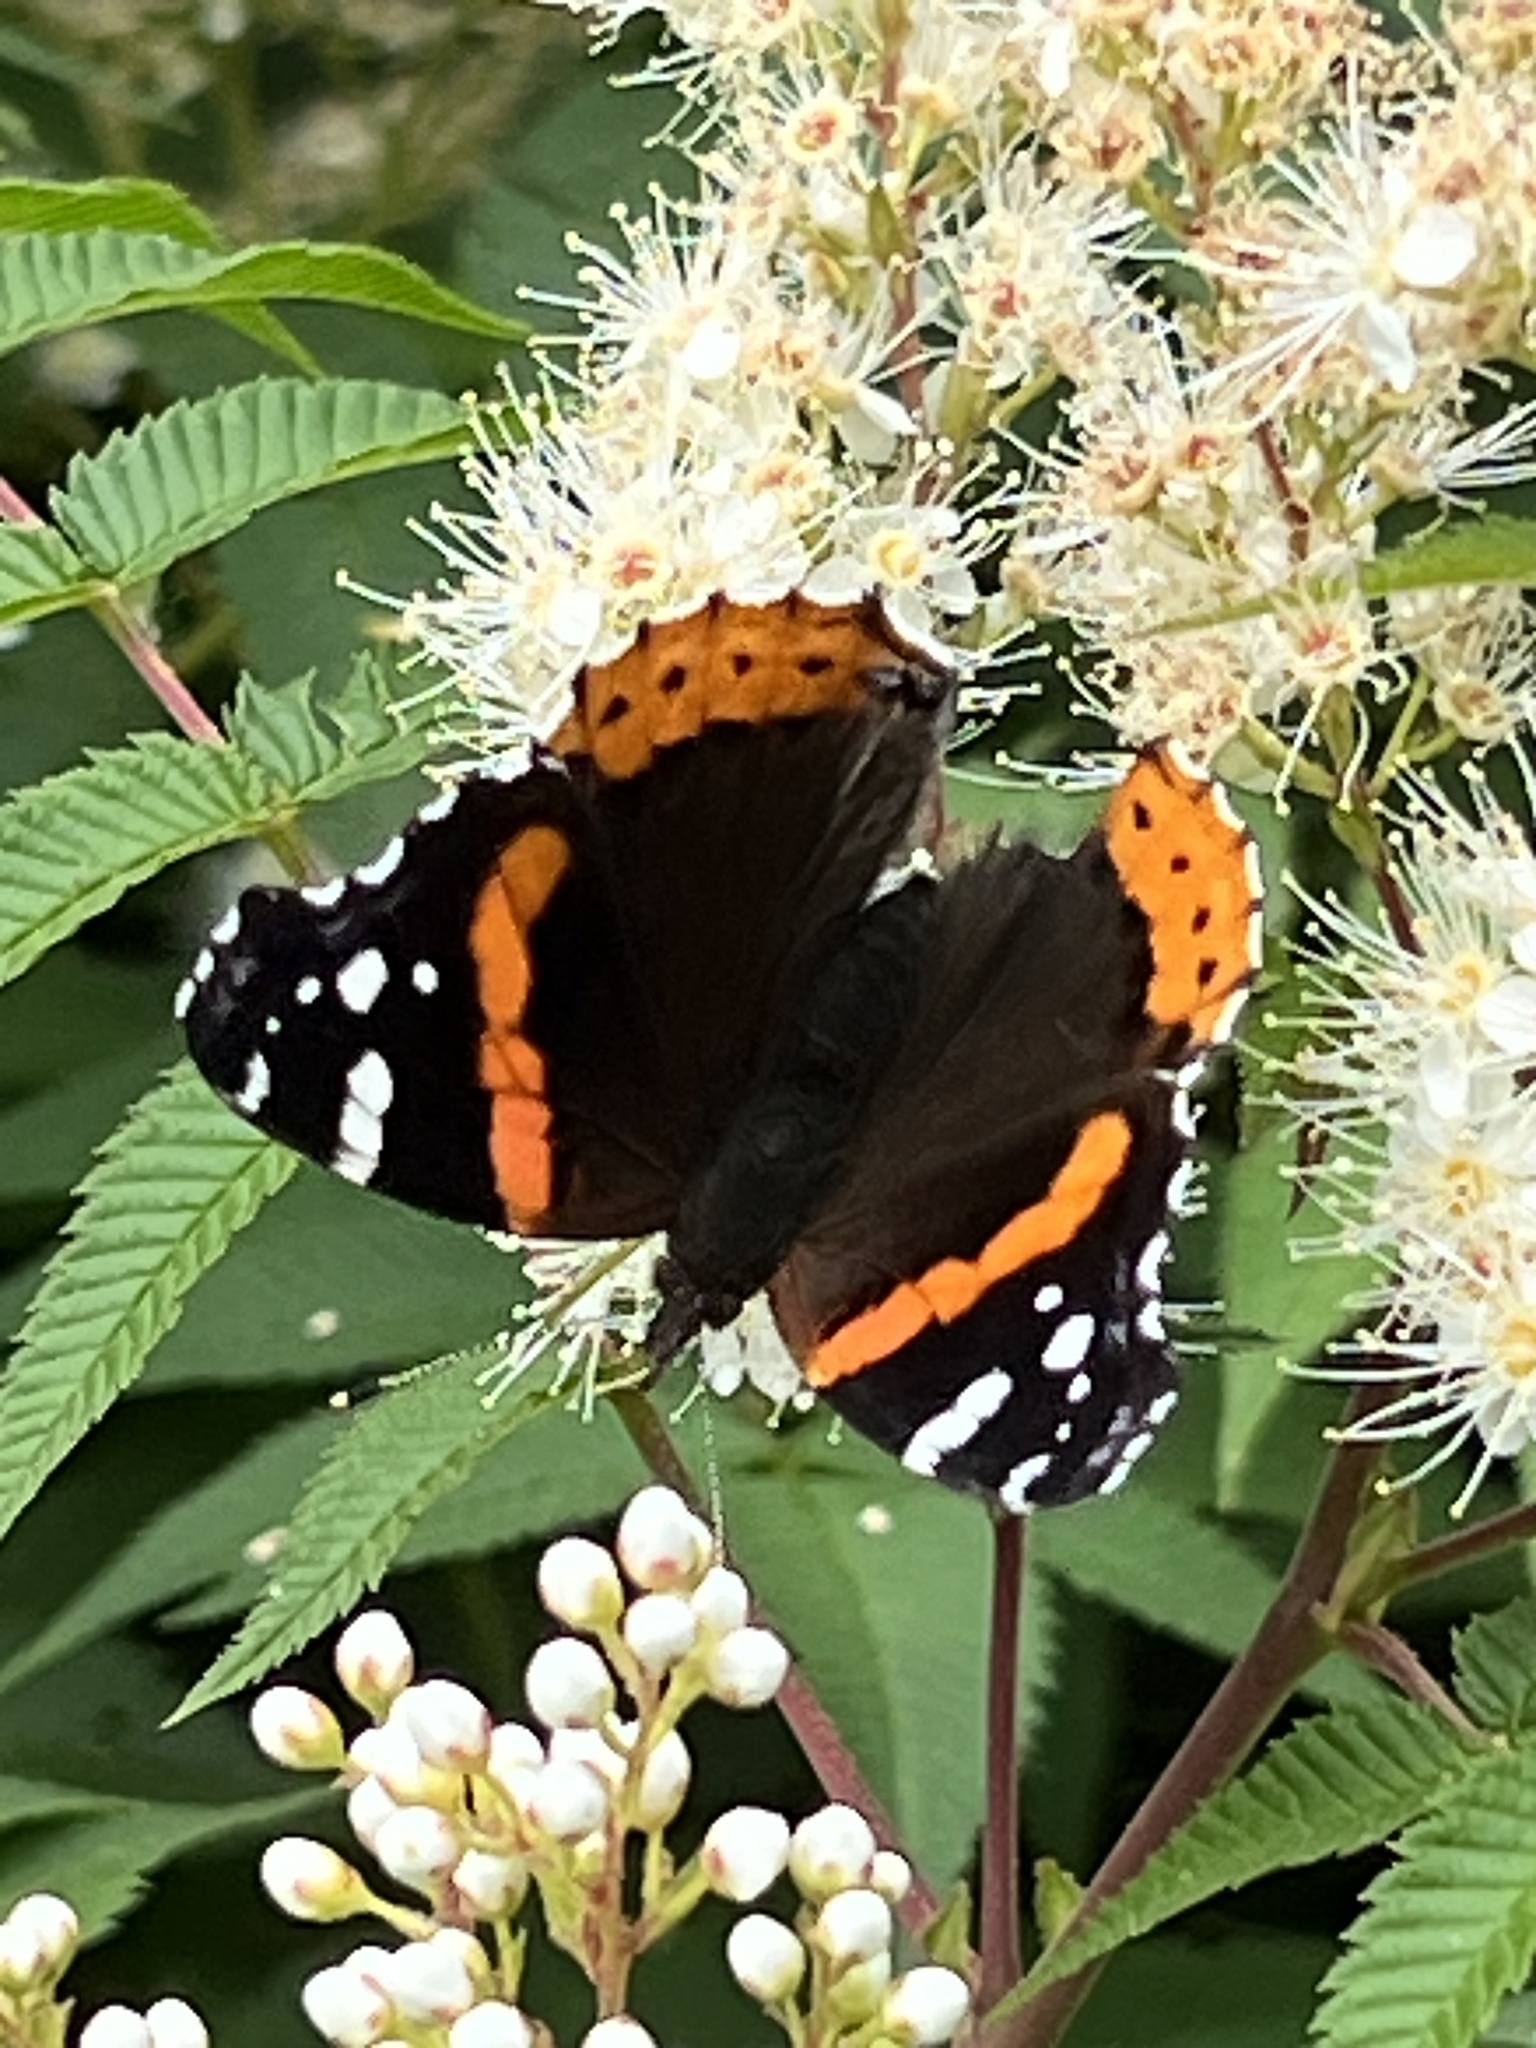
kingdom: Animalia
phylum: Arthropoda
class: Insecta
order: Lepidoptera
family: Nymphalidae
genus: Vanessa
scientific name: Vanessa atalanta
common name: Red admiral
